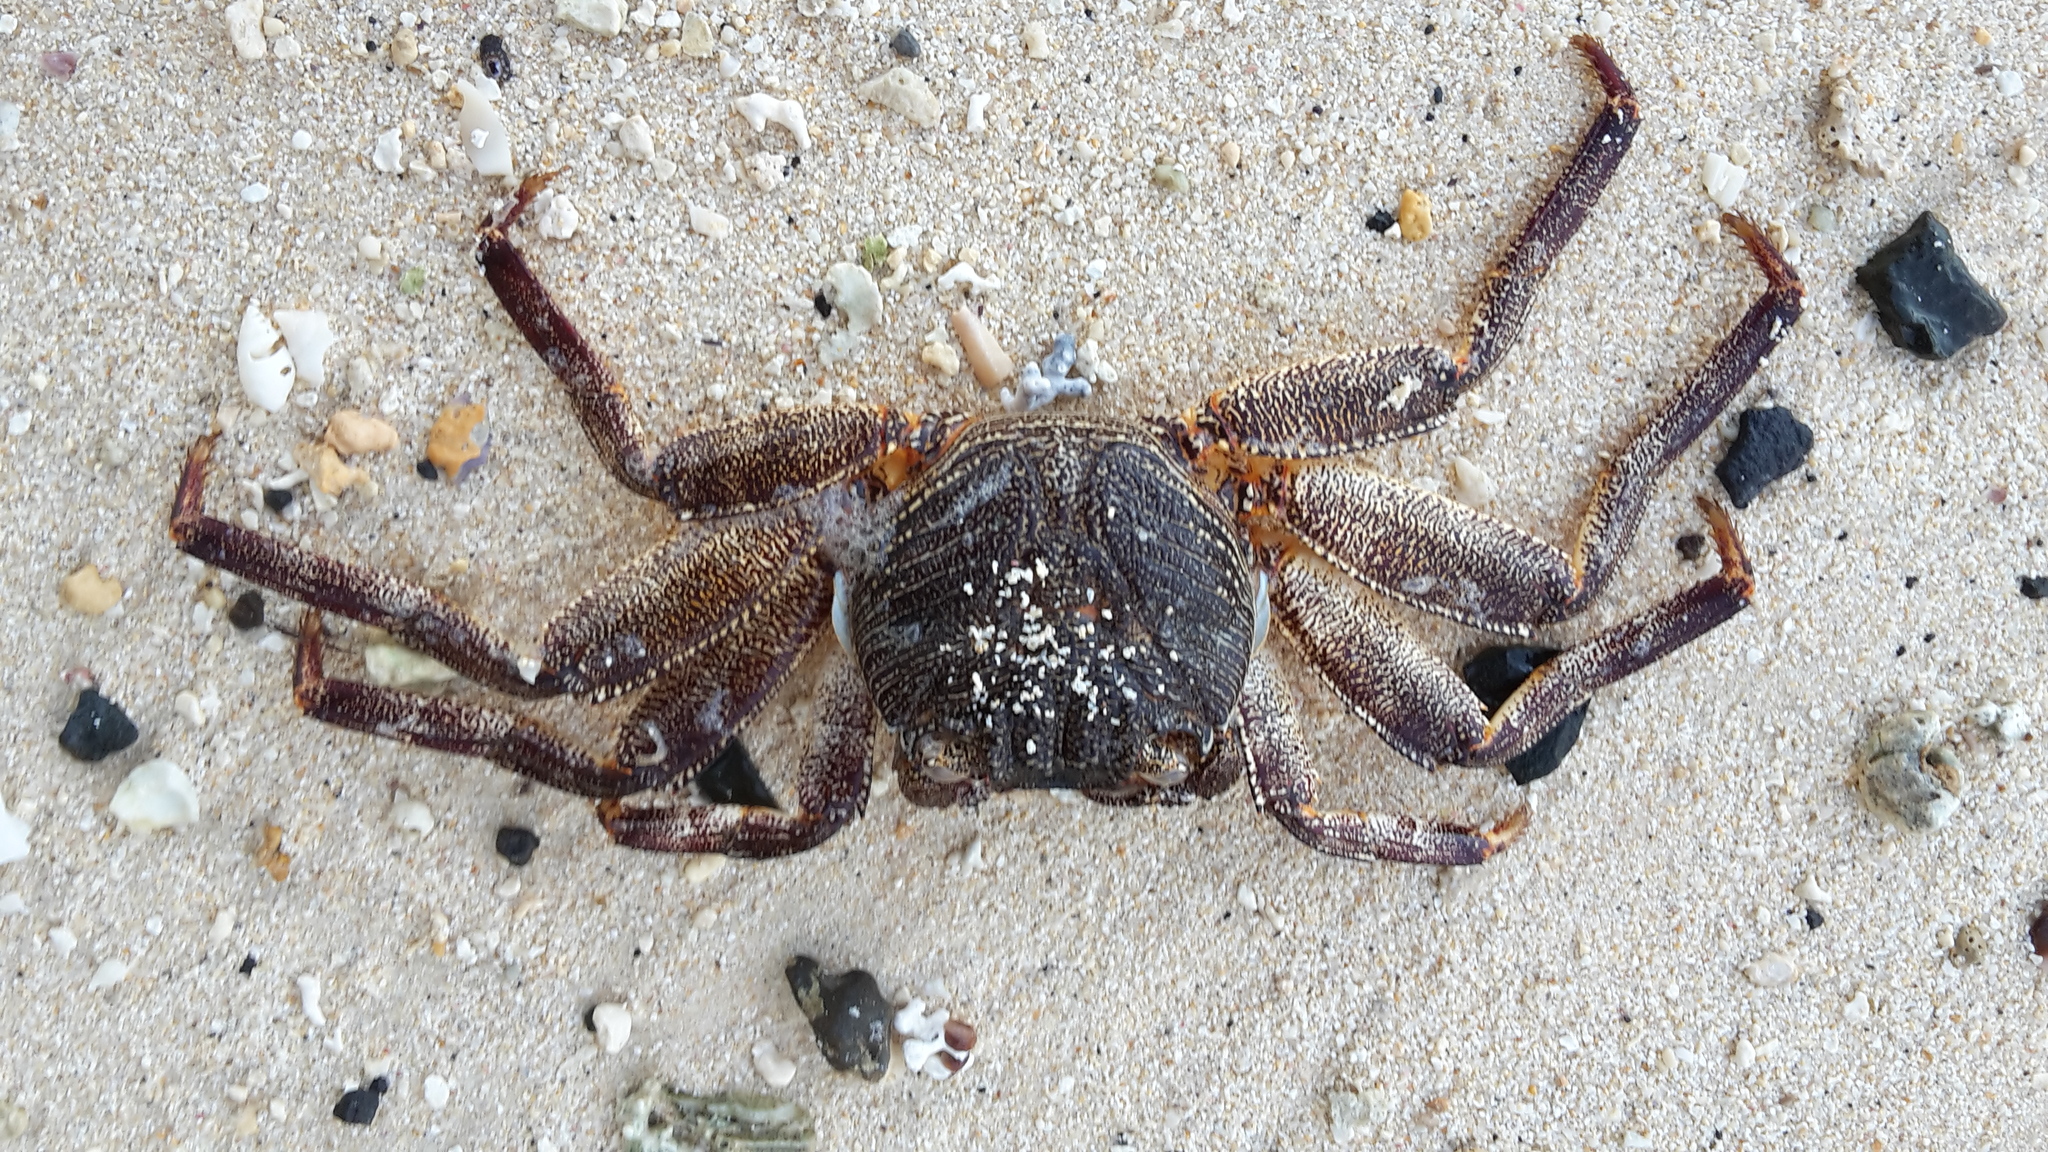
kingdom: Animalia
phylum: Arthropoda
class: Malacostraca
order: Decapoda
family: Grapsidae
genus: Grapsus
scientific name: Grapsus tenuicrustatus
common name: Natal lightfoot crab
